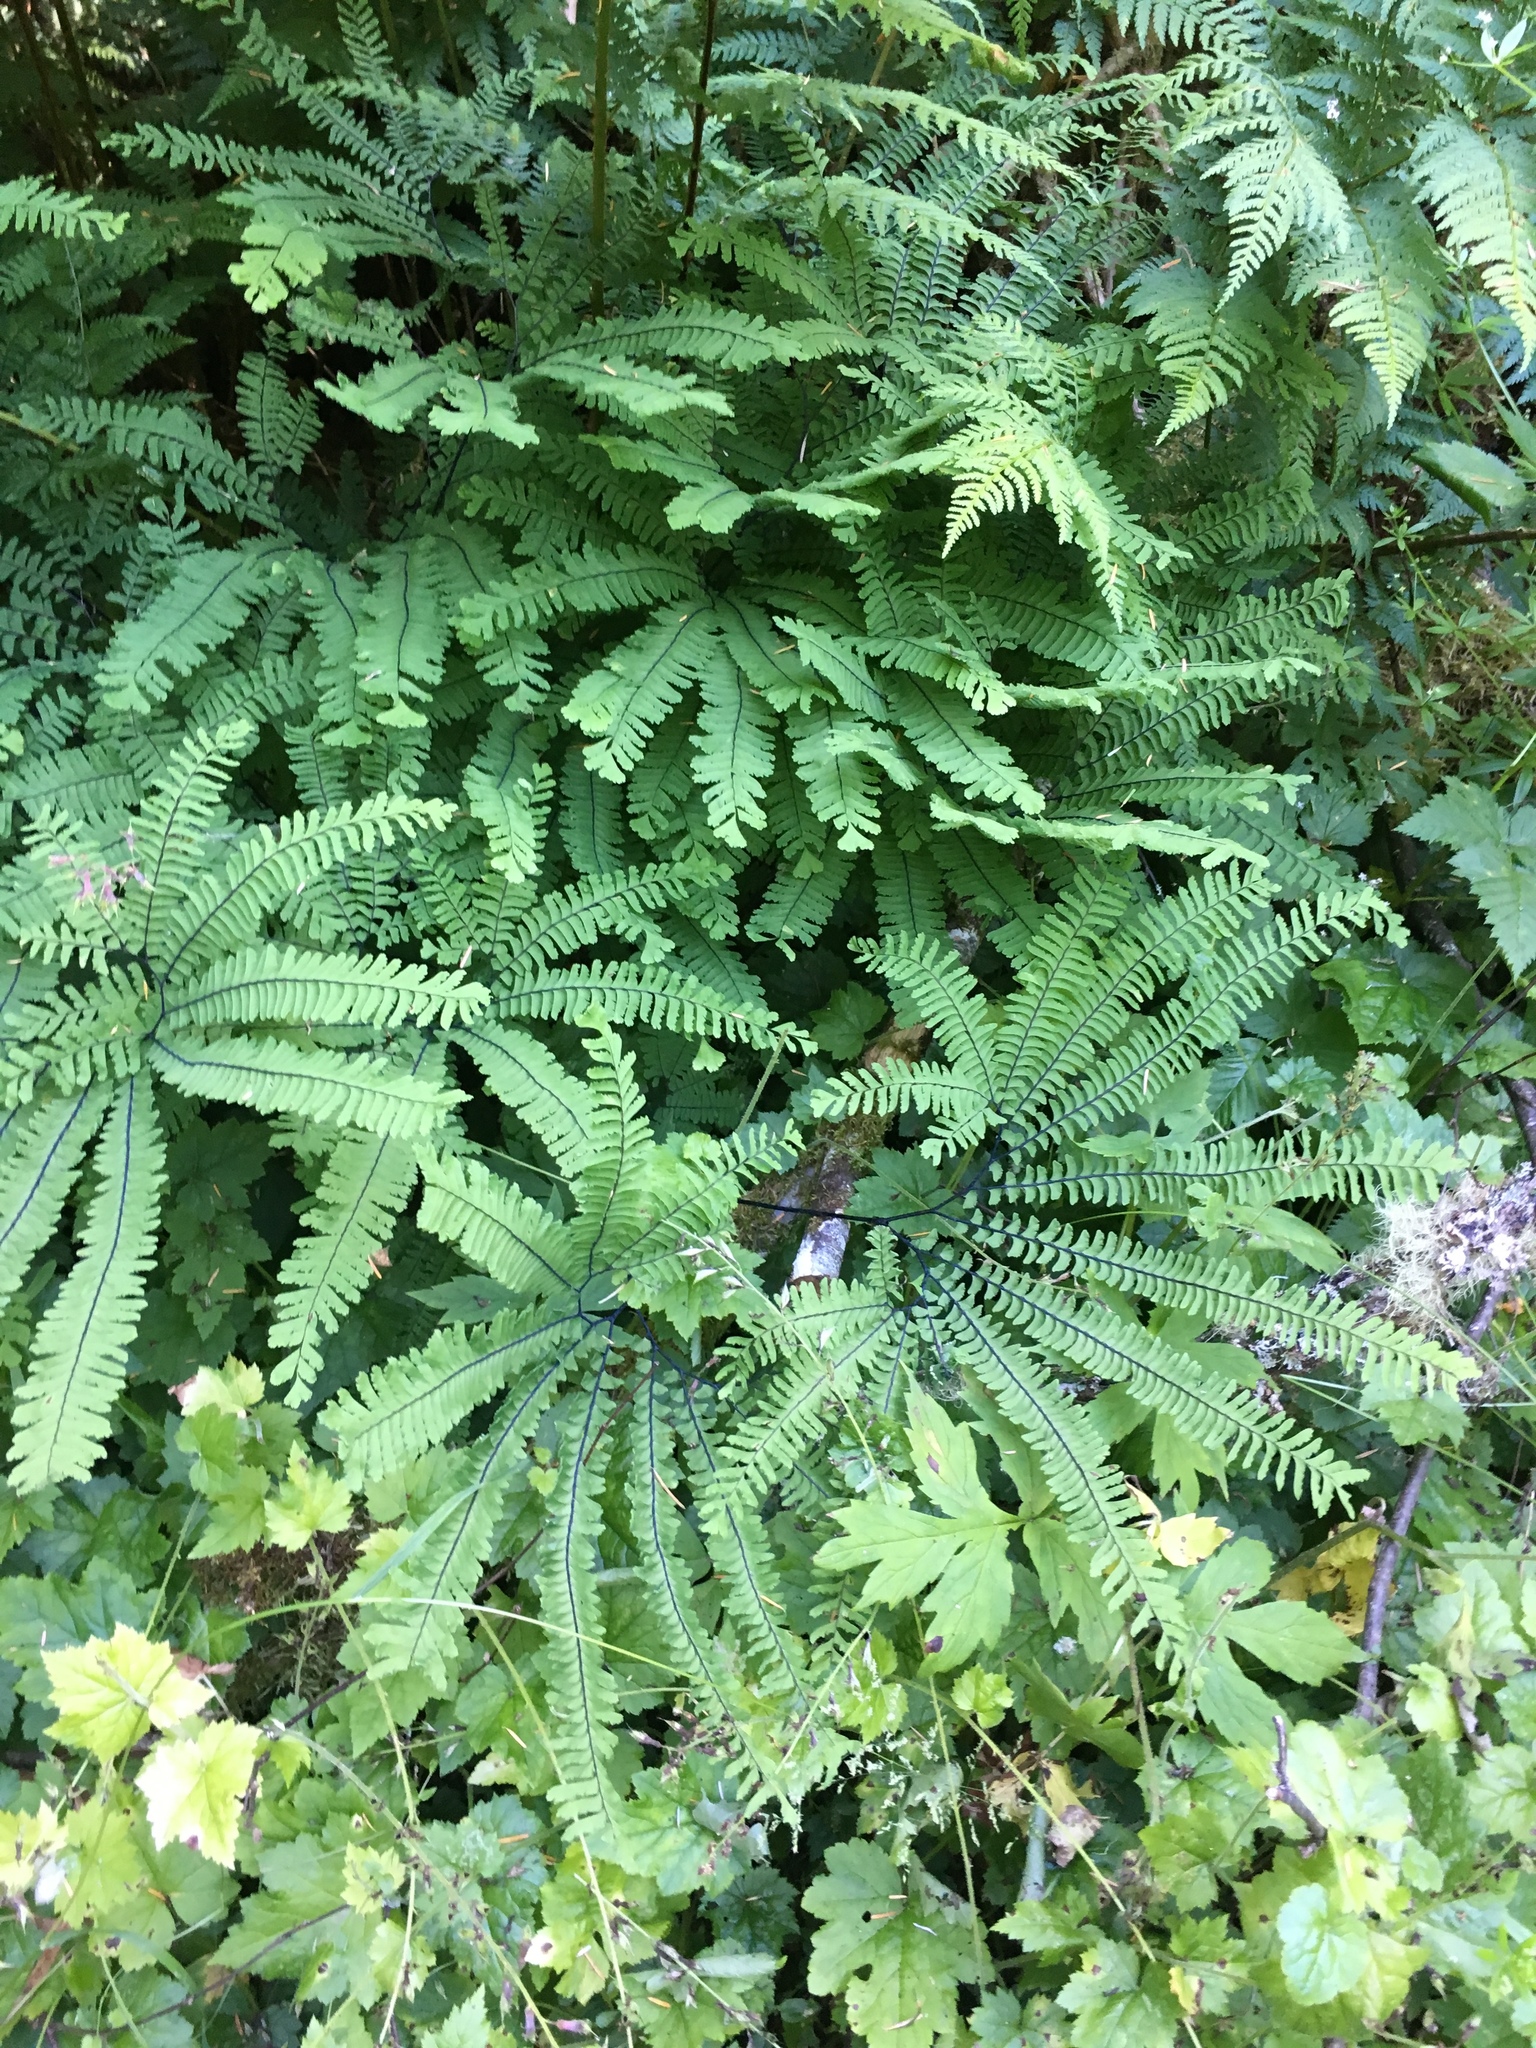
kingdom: Plantae
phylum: Tracheophyta
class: Polypodiopsida
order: Polypodiales
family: Pteridaceae
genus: Adiantum
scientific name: Adiantum aleuticum
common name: Aleutian maidenhair fern
